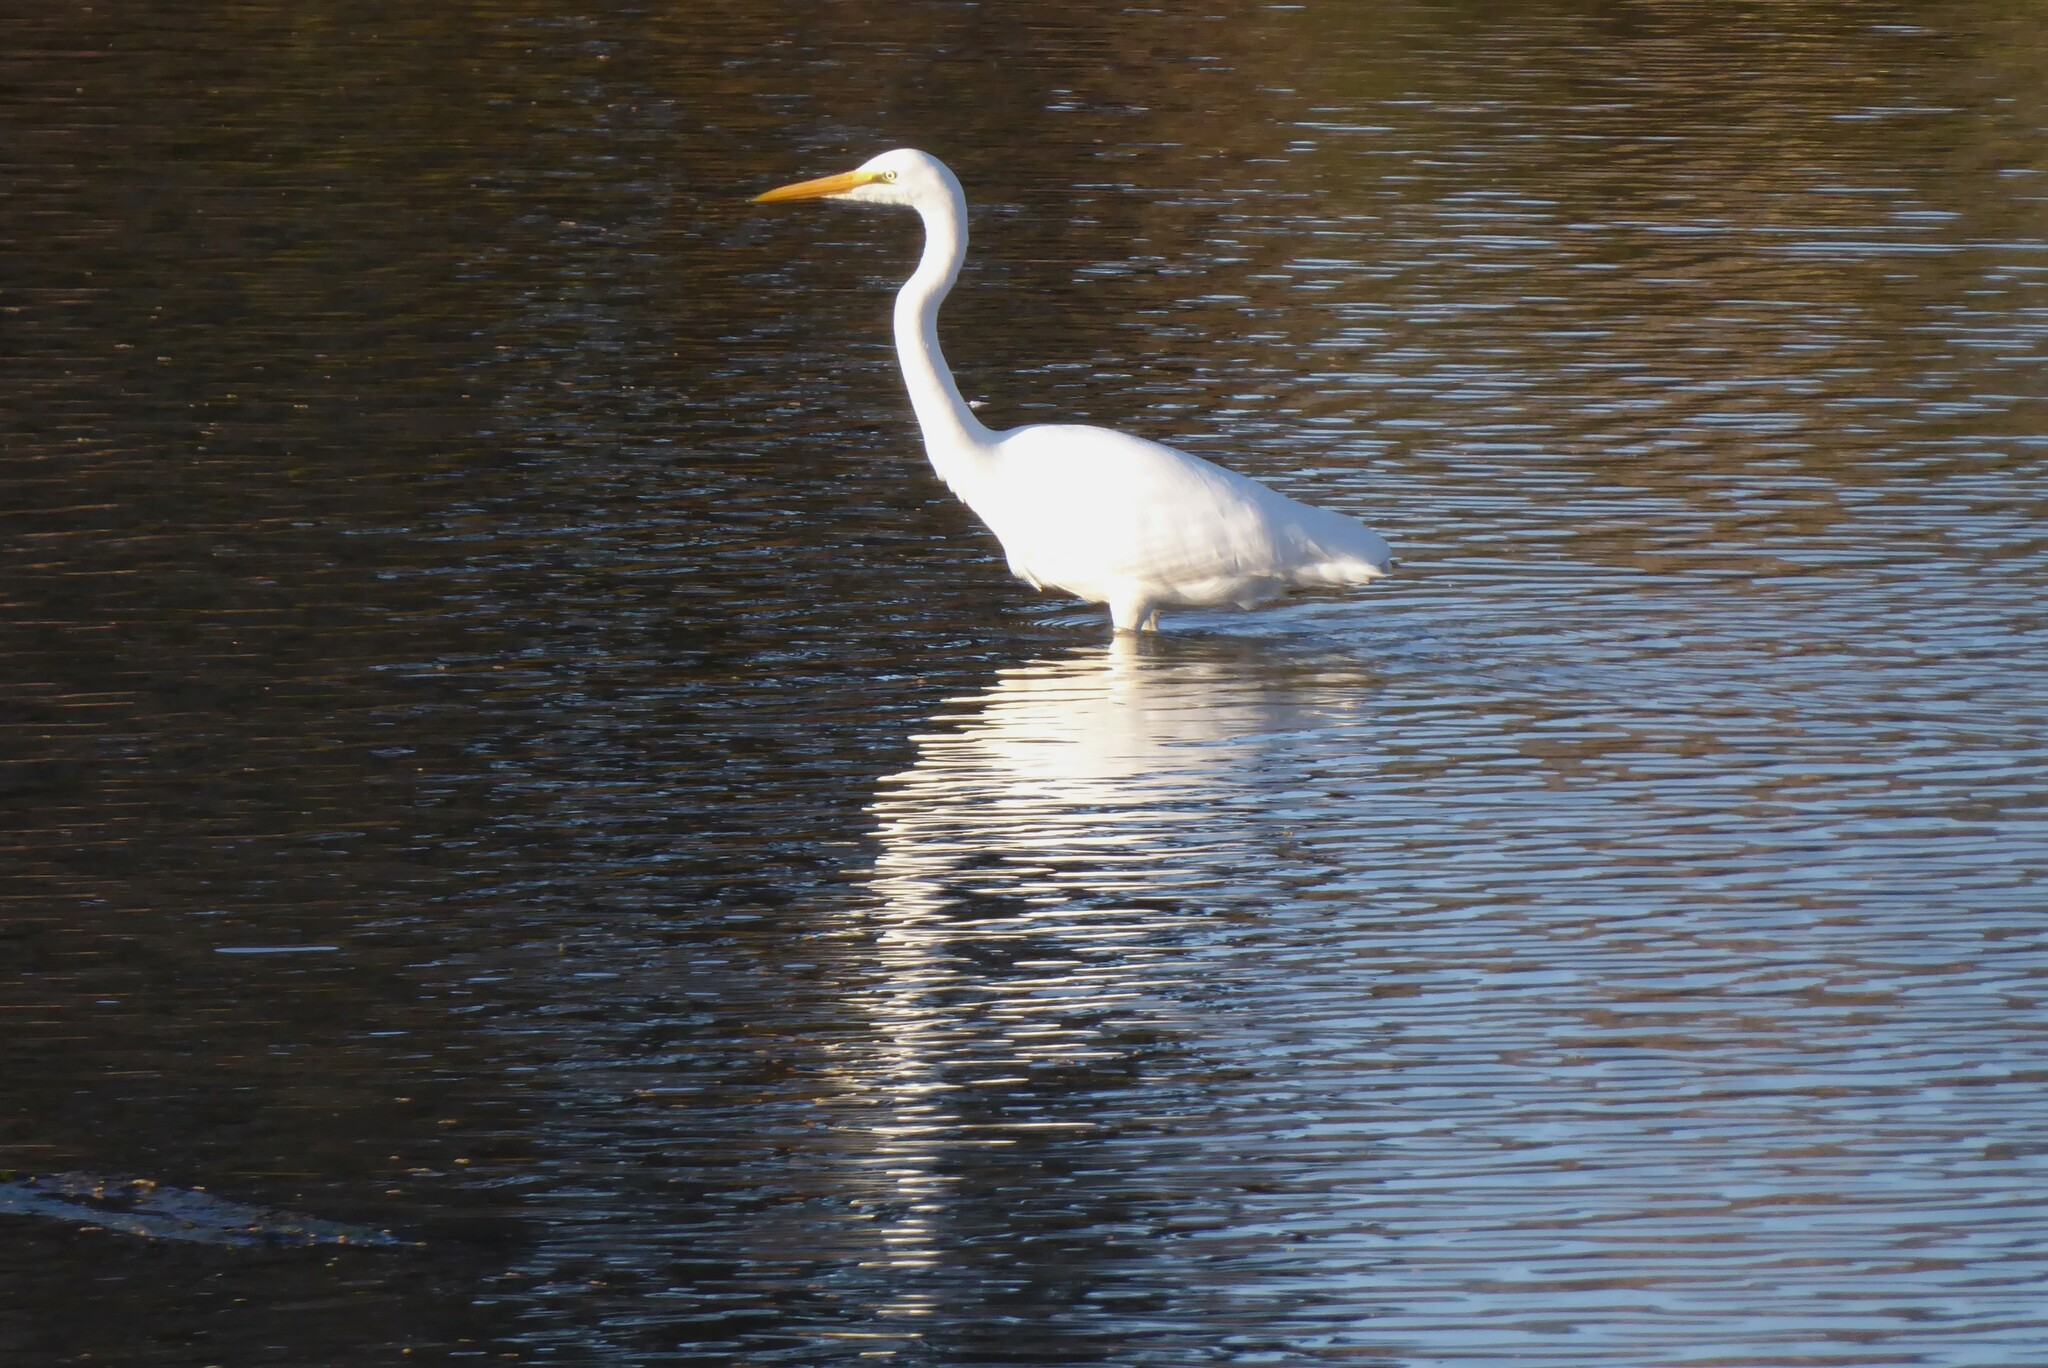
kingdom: Animalia
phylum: Chordata
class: Aves
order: Pelecaniformes
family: Ardeidae
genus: Ardea
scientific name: Ardea modesta
